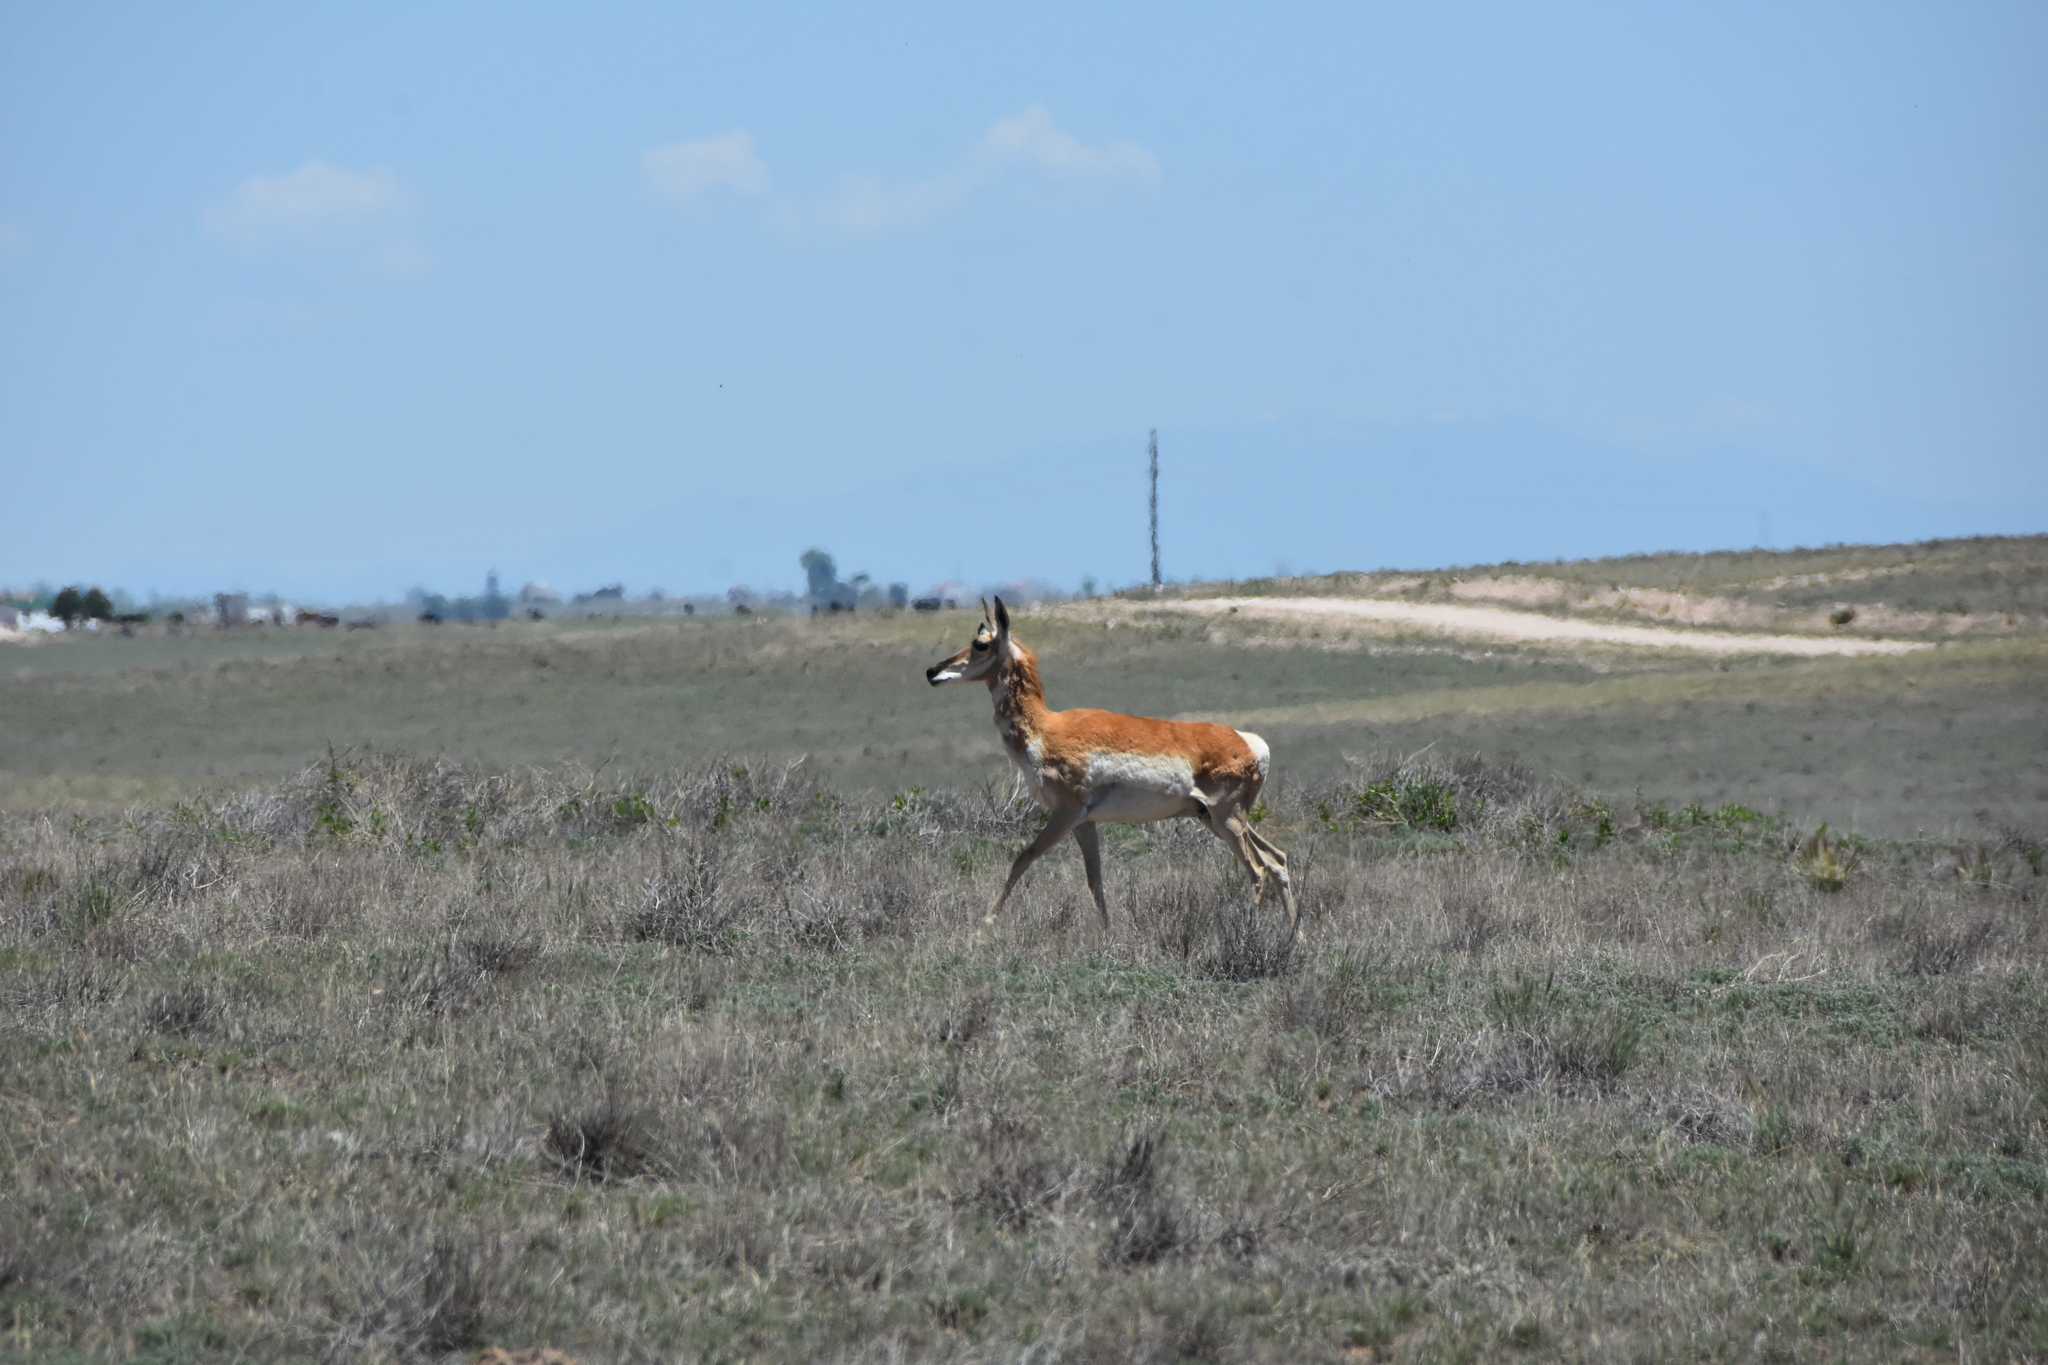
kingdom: Animalia
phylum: Chordata
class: Mammalia
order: Artiodactyla
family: Antilocapridae
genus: Antilocapra
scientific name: Antilocapra americana
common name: Pronghorn
